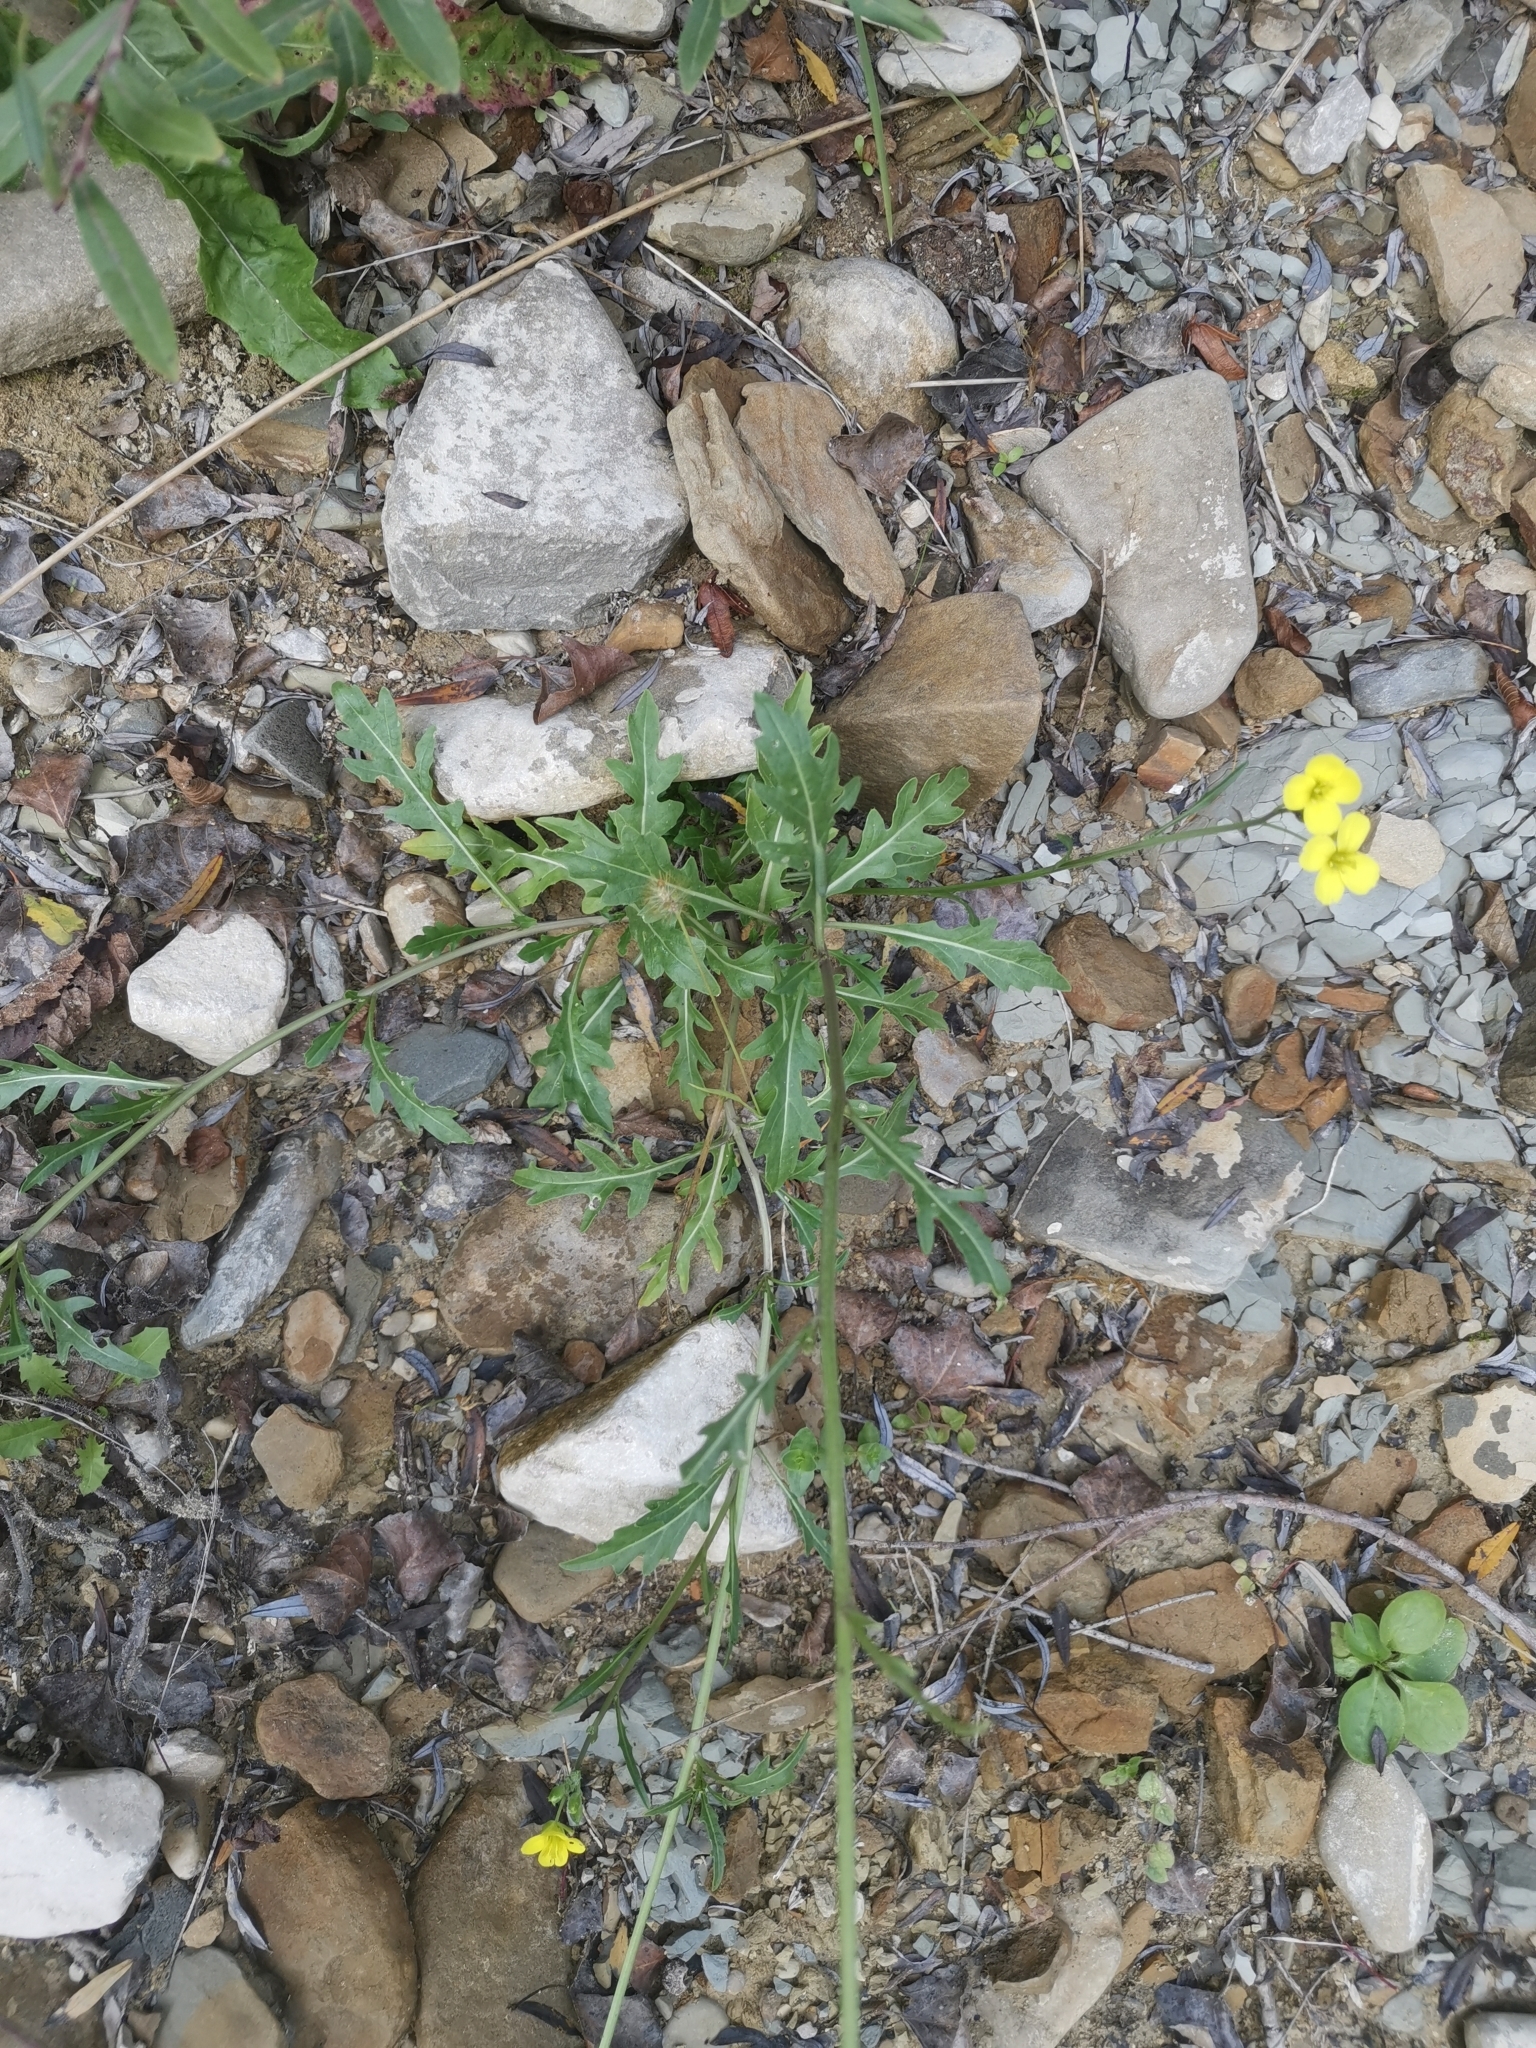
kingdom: Plantae
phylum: Tracheophyta
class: Magnoliopsida
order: Brassicales
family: Brassicaceae
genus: Diplotaxis
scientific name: Diplotaxis tenuifolia
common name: Perennial wall-rocket
